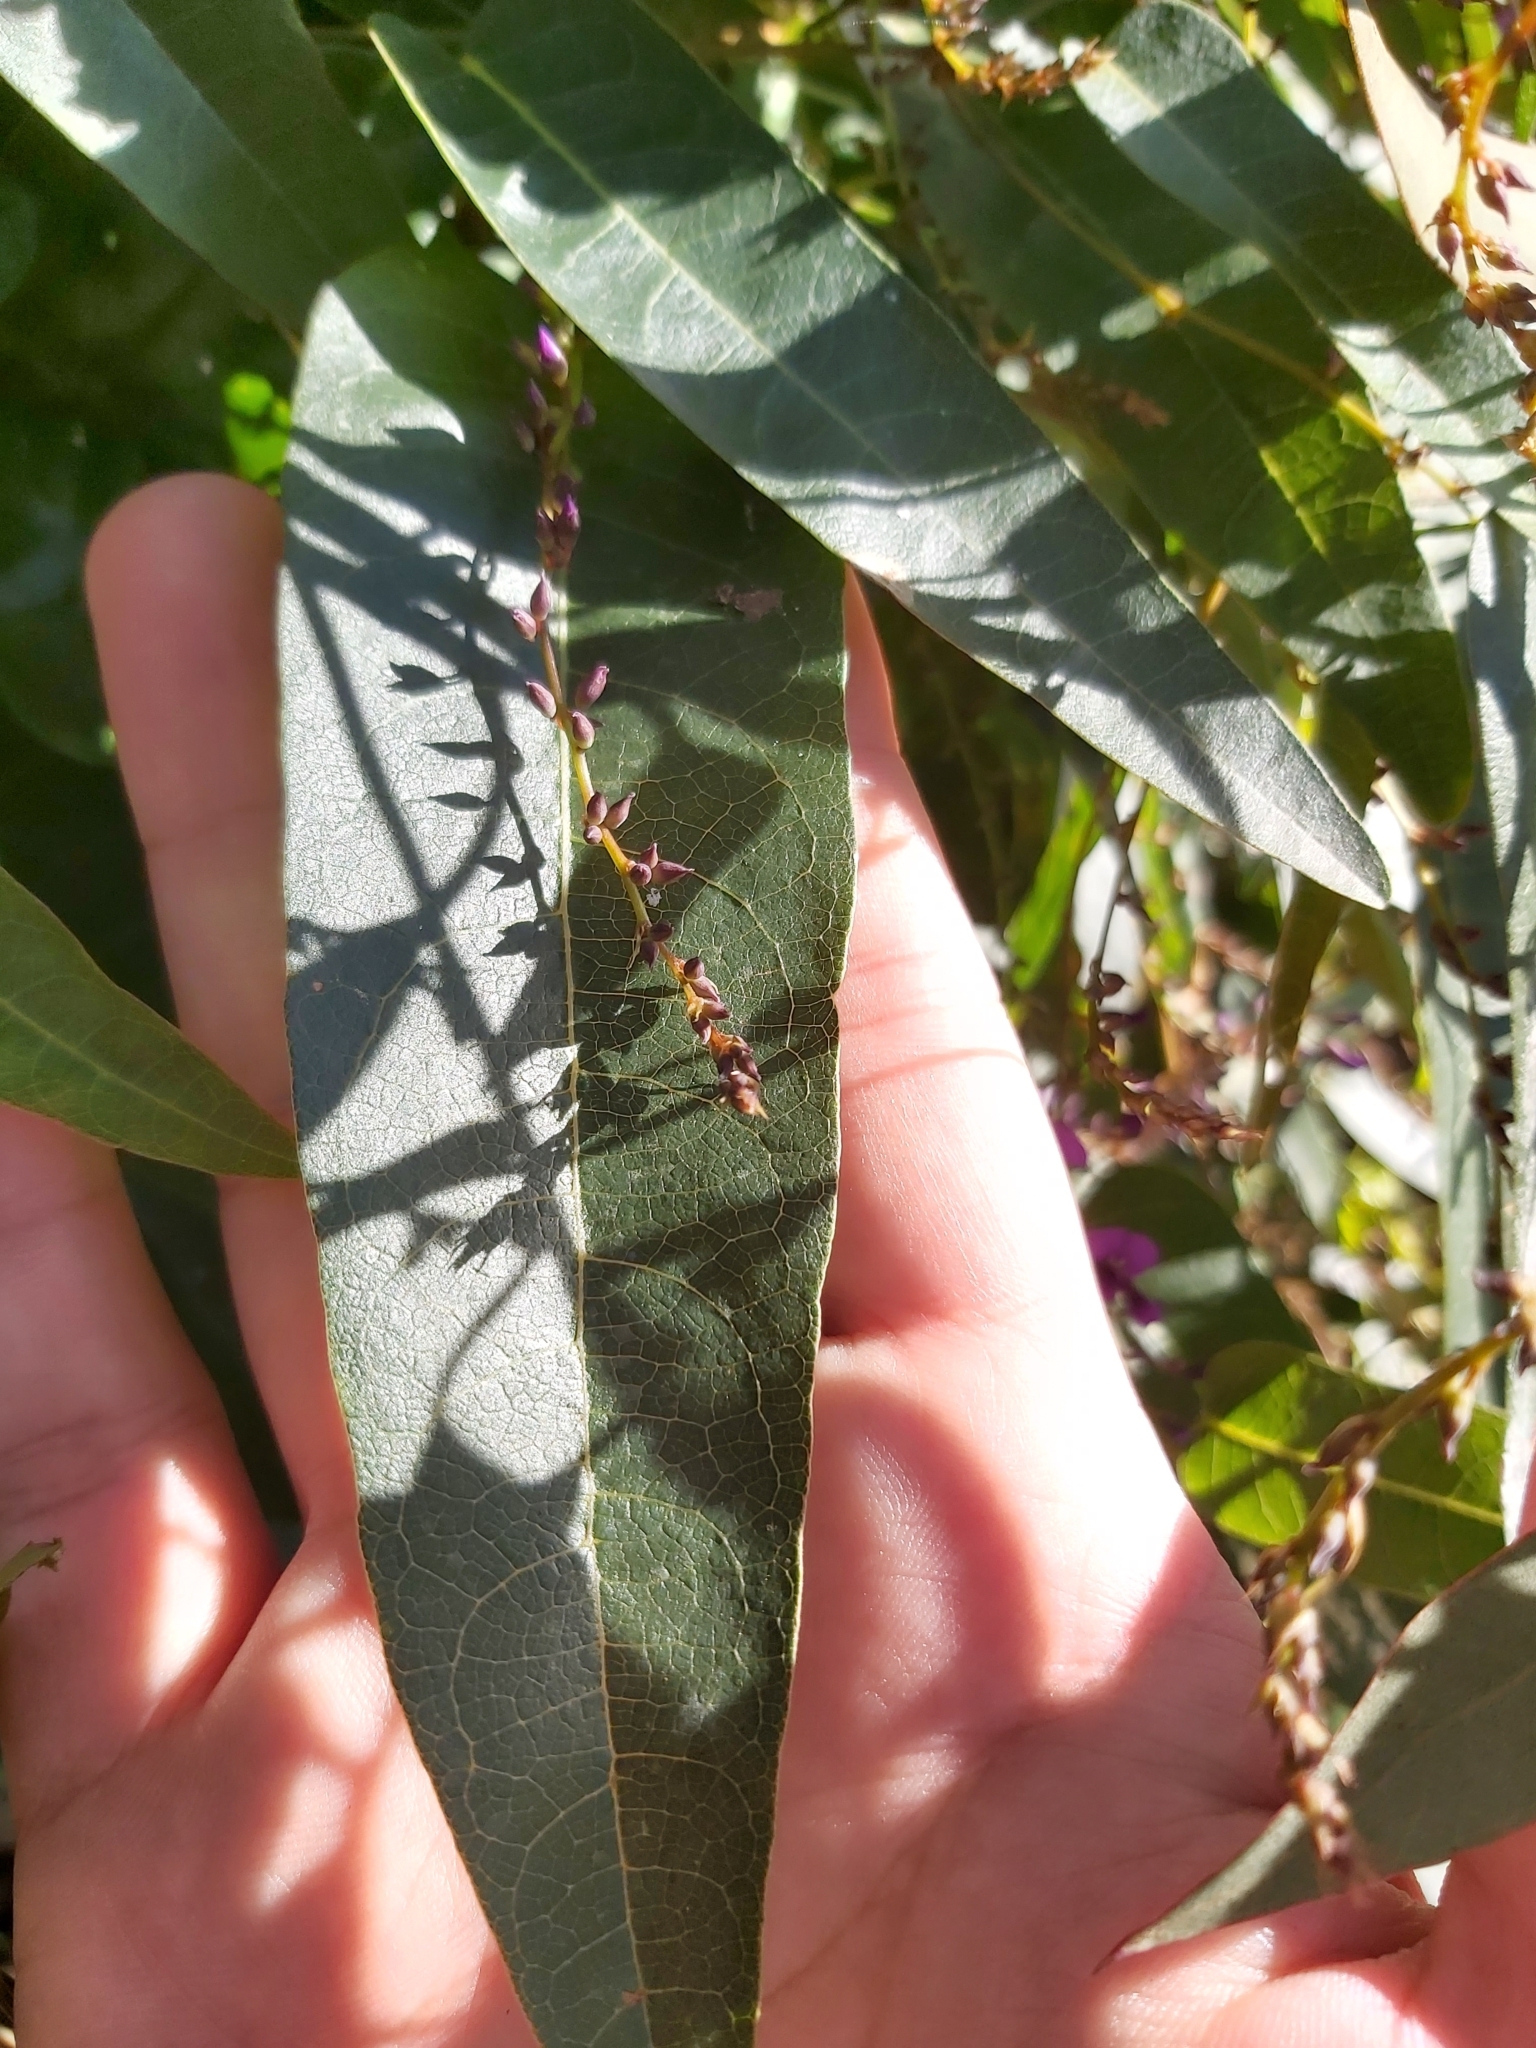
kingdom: Plantae
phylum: Tracheophyta
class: Magnoliopsida
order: Fabales
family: Fabaceae
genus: Hardenbergia
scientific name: Hardenbergia violacea
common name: Coral-pea
